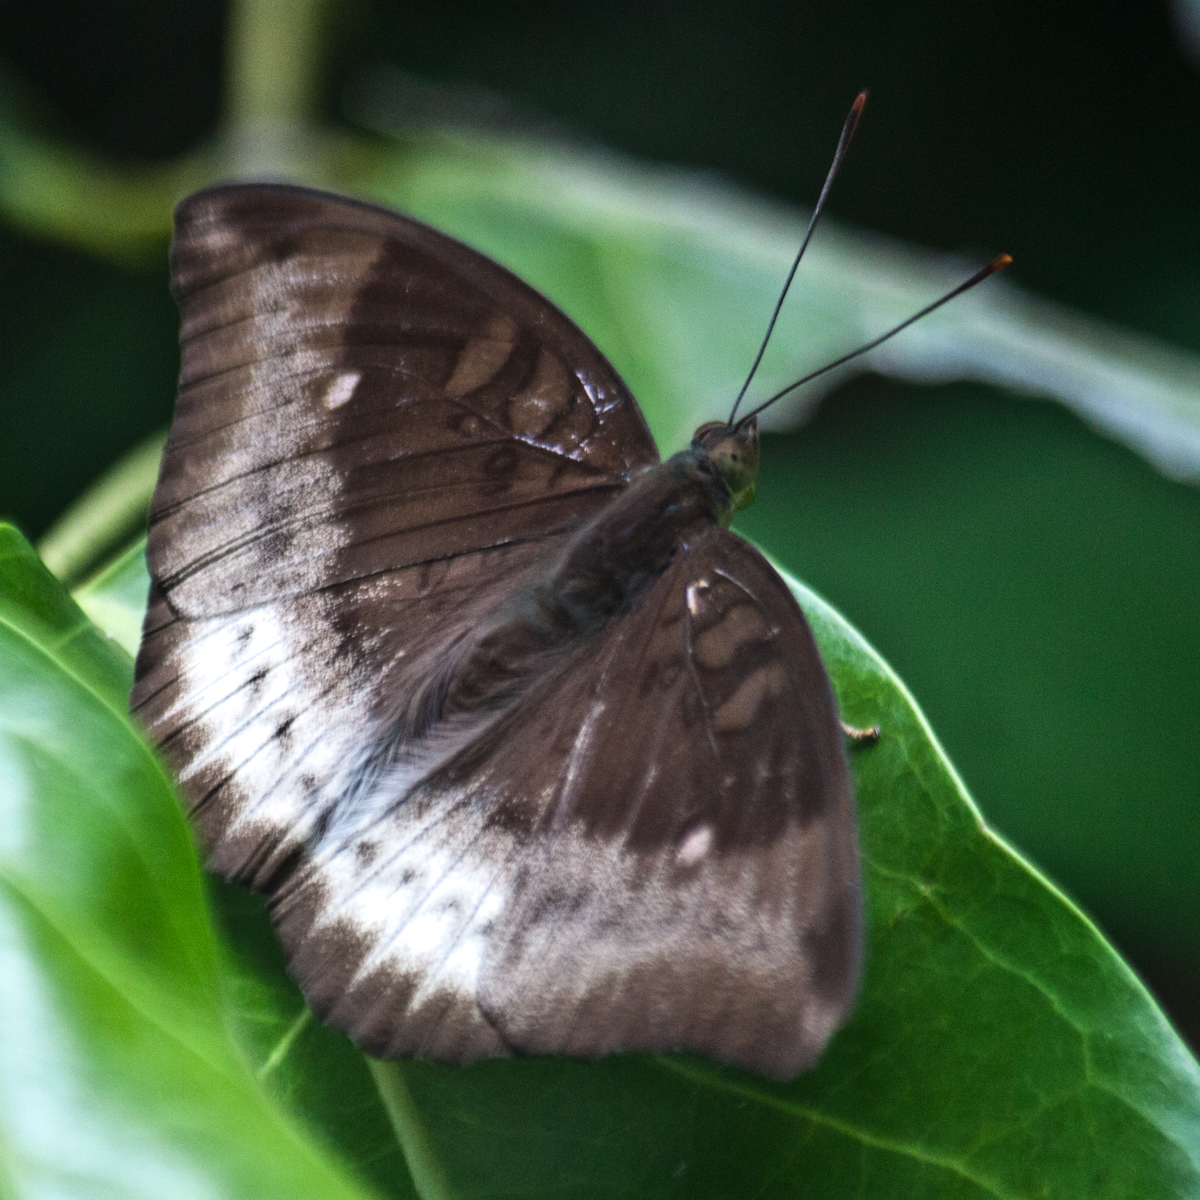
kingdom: Animalia
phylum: Arthropoda
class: Insecta
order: Lepidoptera
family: Nymphalidae
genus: Euthalia
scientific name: Euthalia monina
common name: Powdered baron
